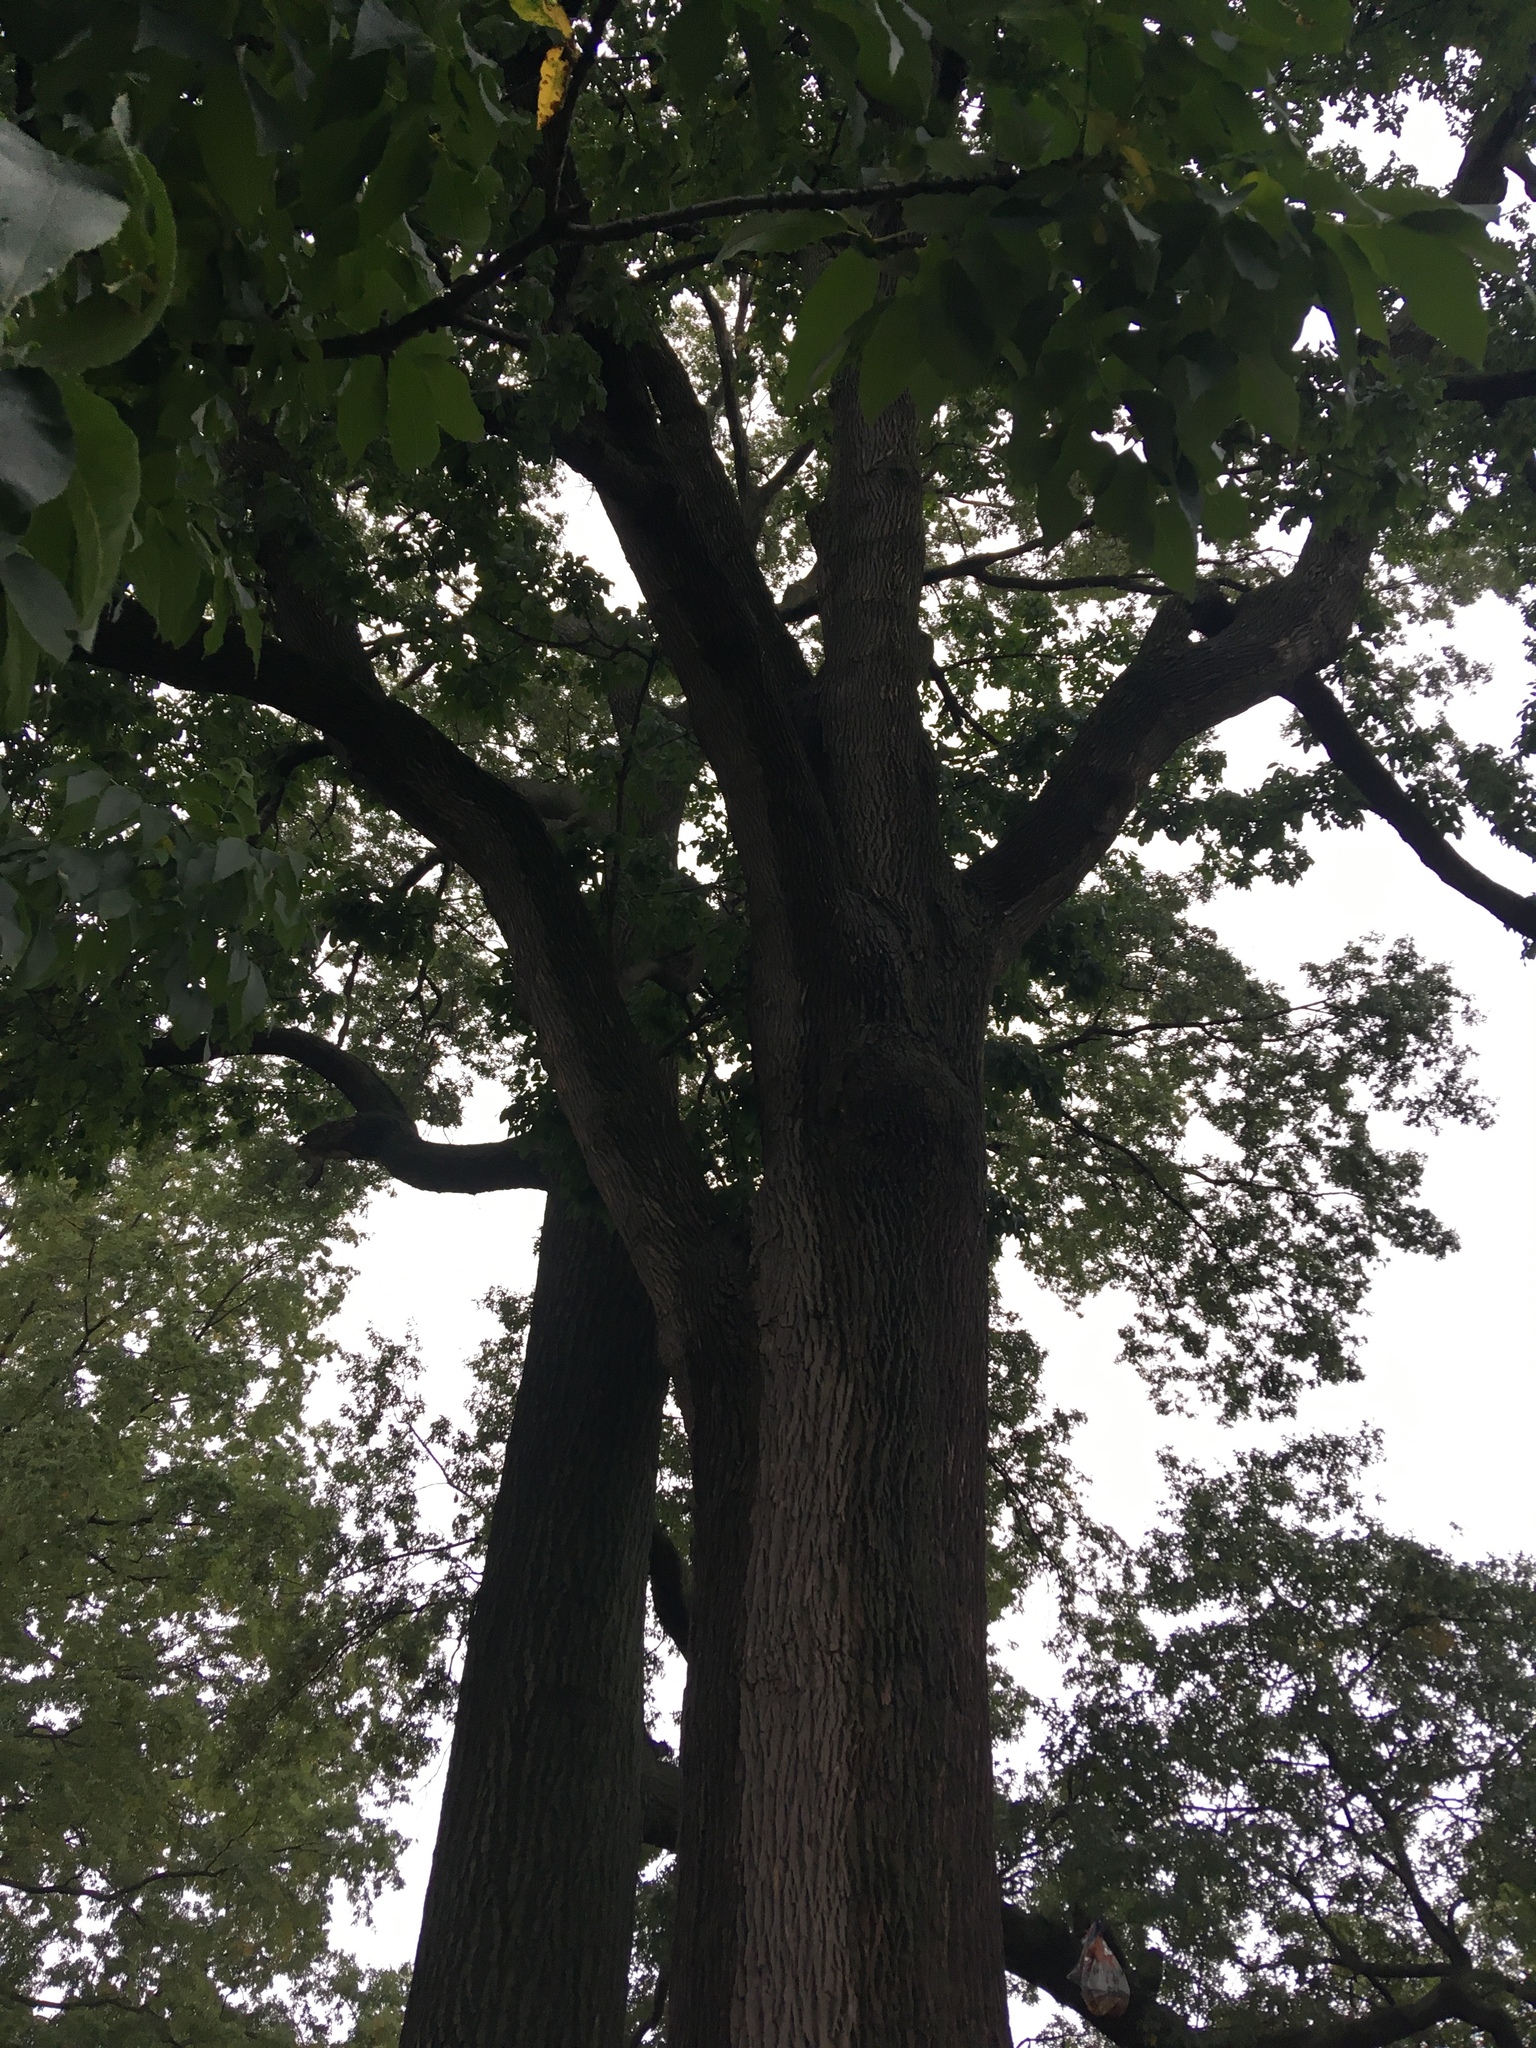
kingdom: Plantae
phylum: Tracheophyta
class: Magnoliopsida
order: Lamiales
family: Oleaceae
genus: Fraxinus
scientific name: Fraxinus americana
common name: White ash
